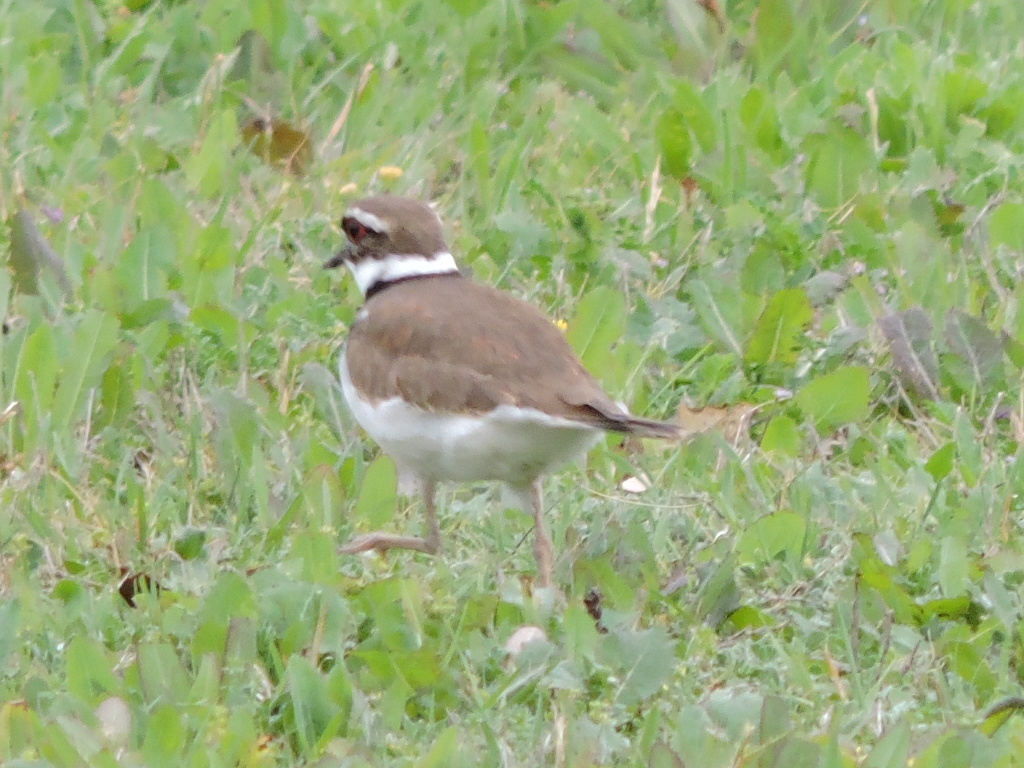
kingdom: Animalia
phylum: Chordata
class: Aves
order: Charadriiformes
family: Charadriidae
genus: Charadrius
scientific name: Charadrius vociferus
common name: Killdeer
